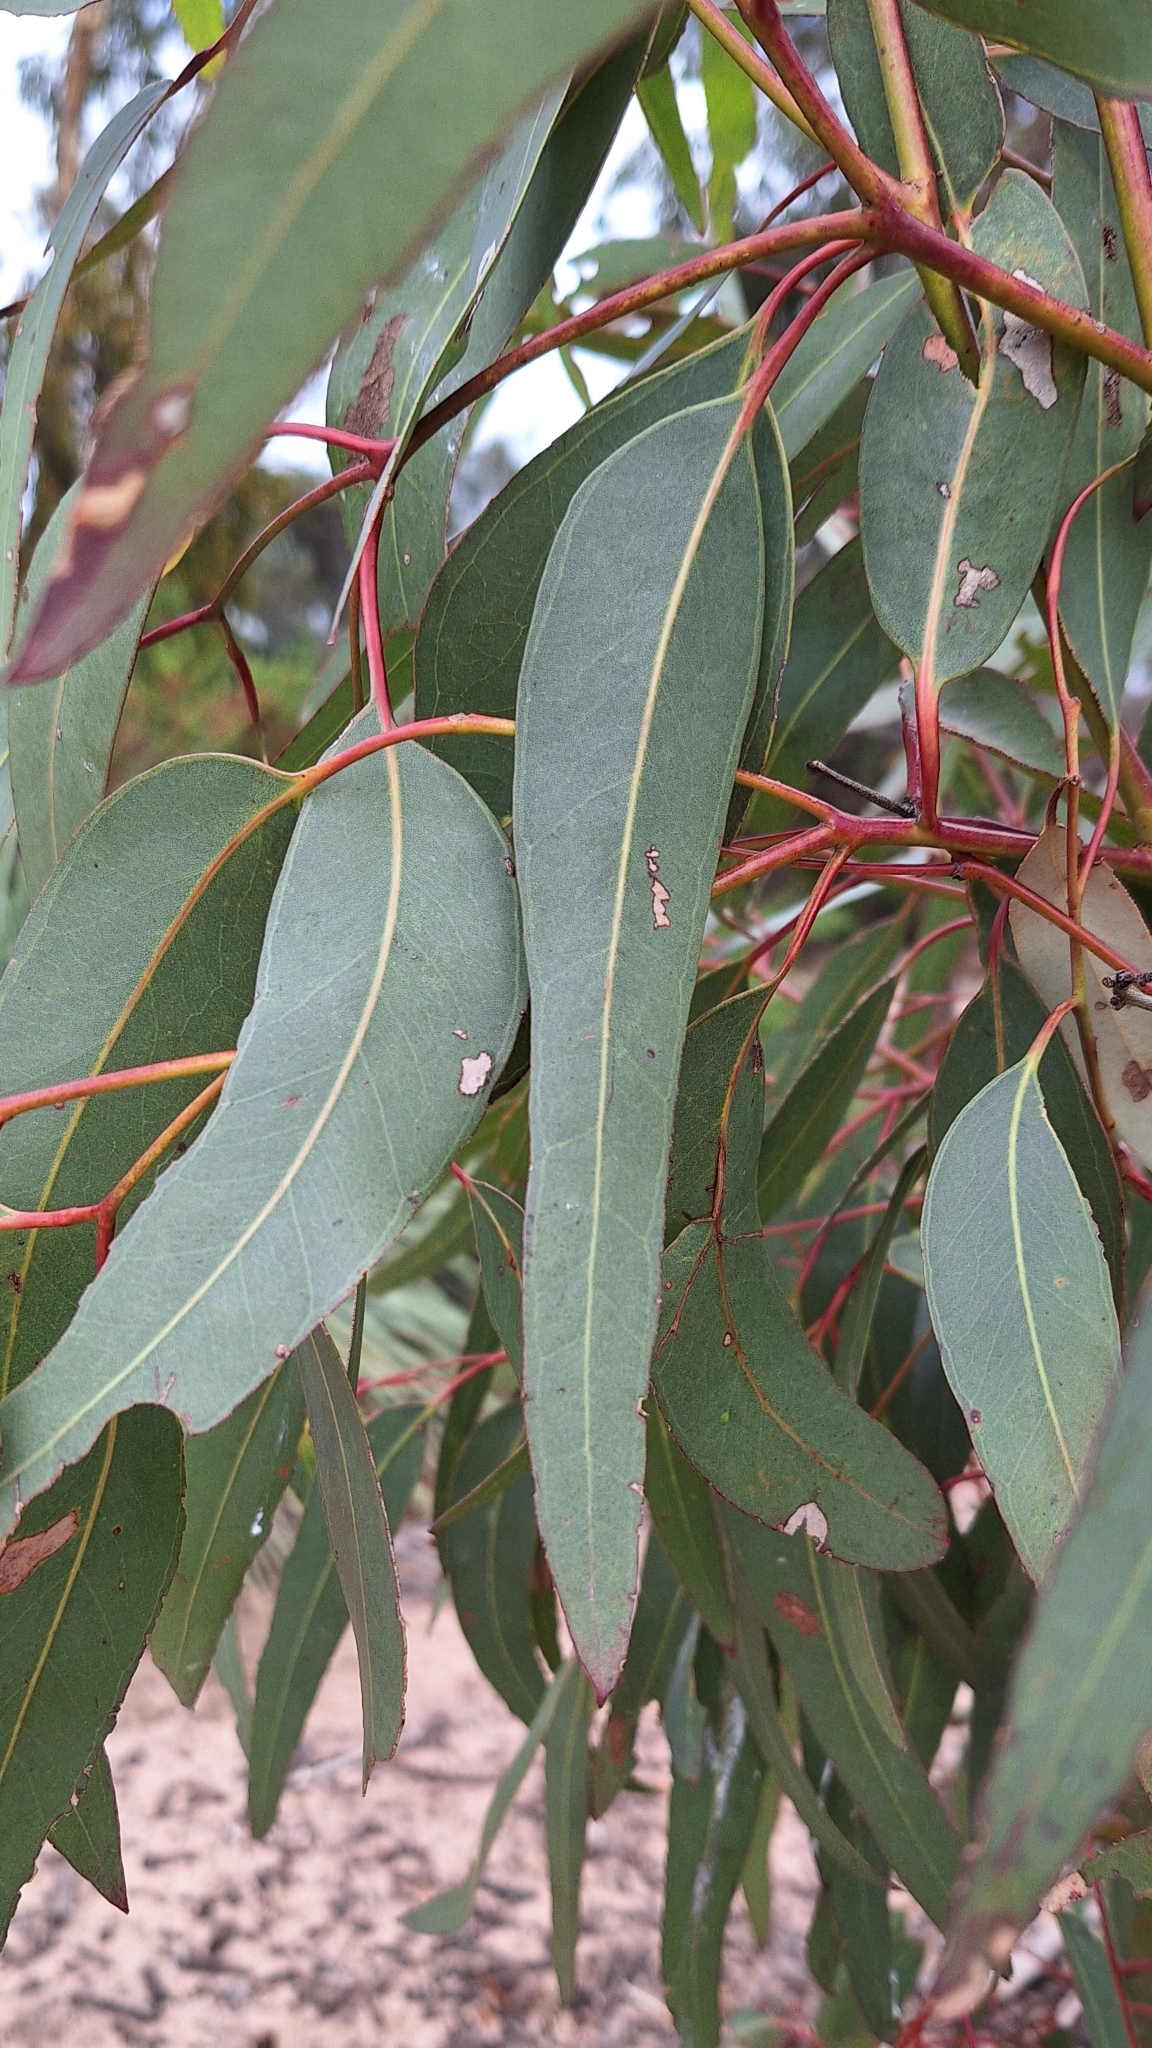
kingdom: Plantae
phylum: Tracheophyta
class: Magnoliopsida
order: Myrtales
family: Myrtaceae
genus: Eucalyptus
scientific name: Eucalyptus fasciculosa
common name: Hill gum
